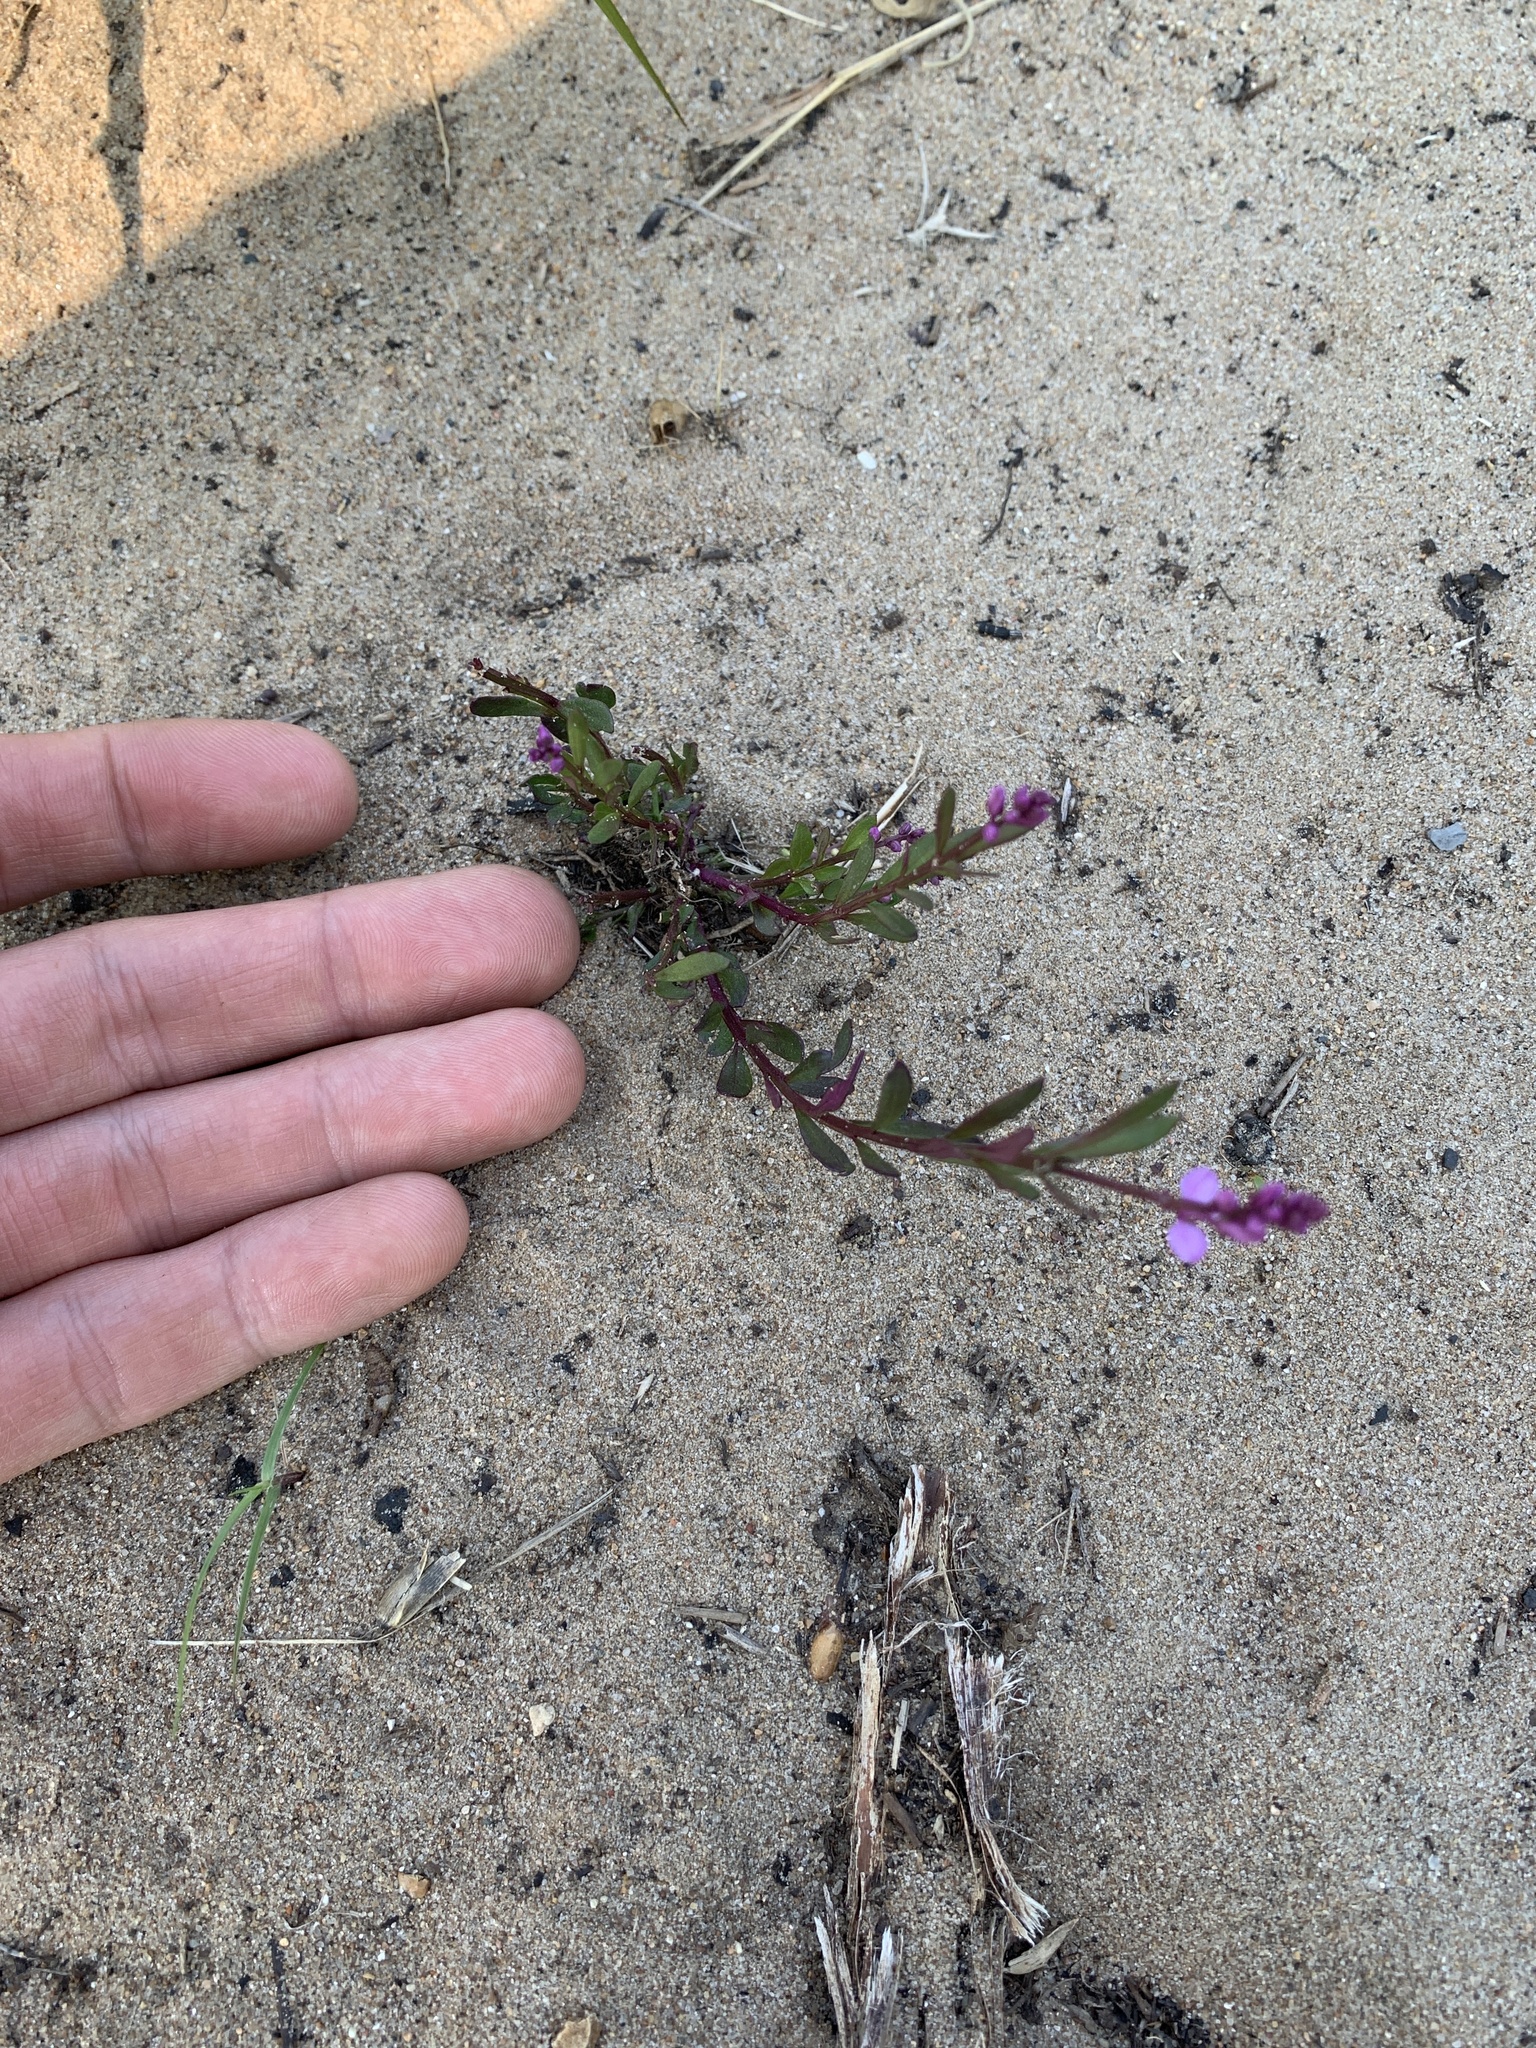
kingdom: Plantae
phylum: Tracheophyta
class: Magnoliopsida
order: Fabales
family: Polygalaceae
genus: Polygala
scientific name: Polygala polygama
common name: Bitter milkwort
